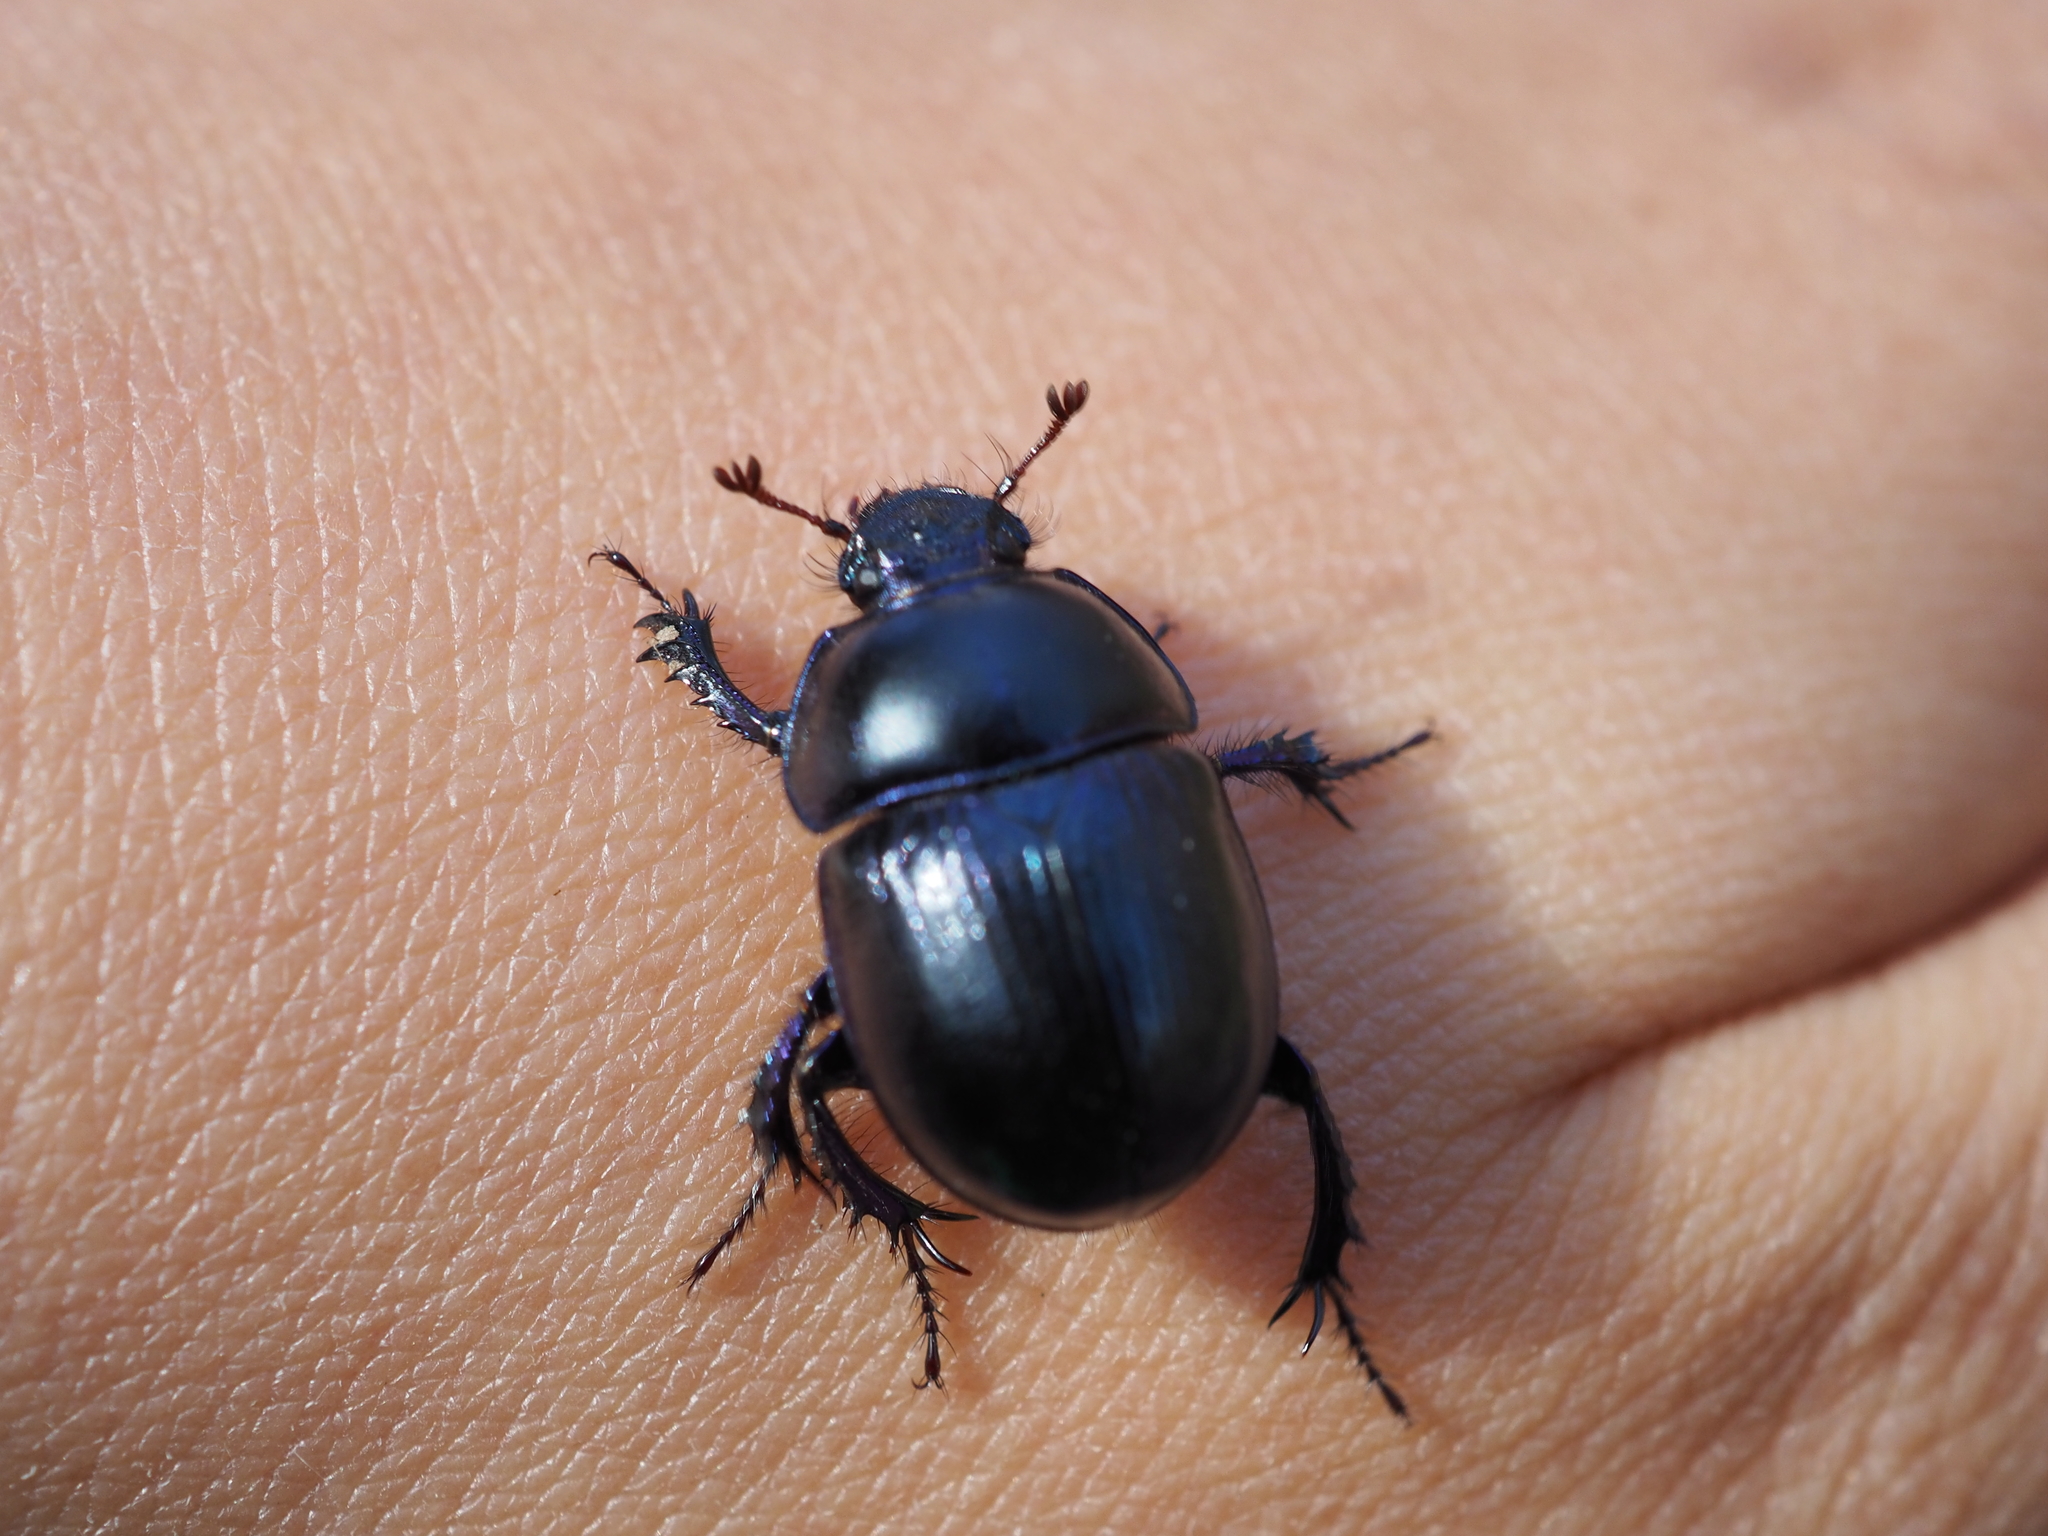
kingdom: Animalia
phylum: Arthropoda
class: Insecta
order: Coleoptera
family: Geotrupidae
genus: Anoplotrupes
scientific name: Anoplotrupes stercorosus
